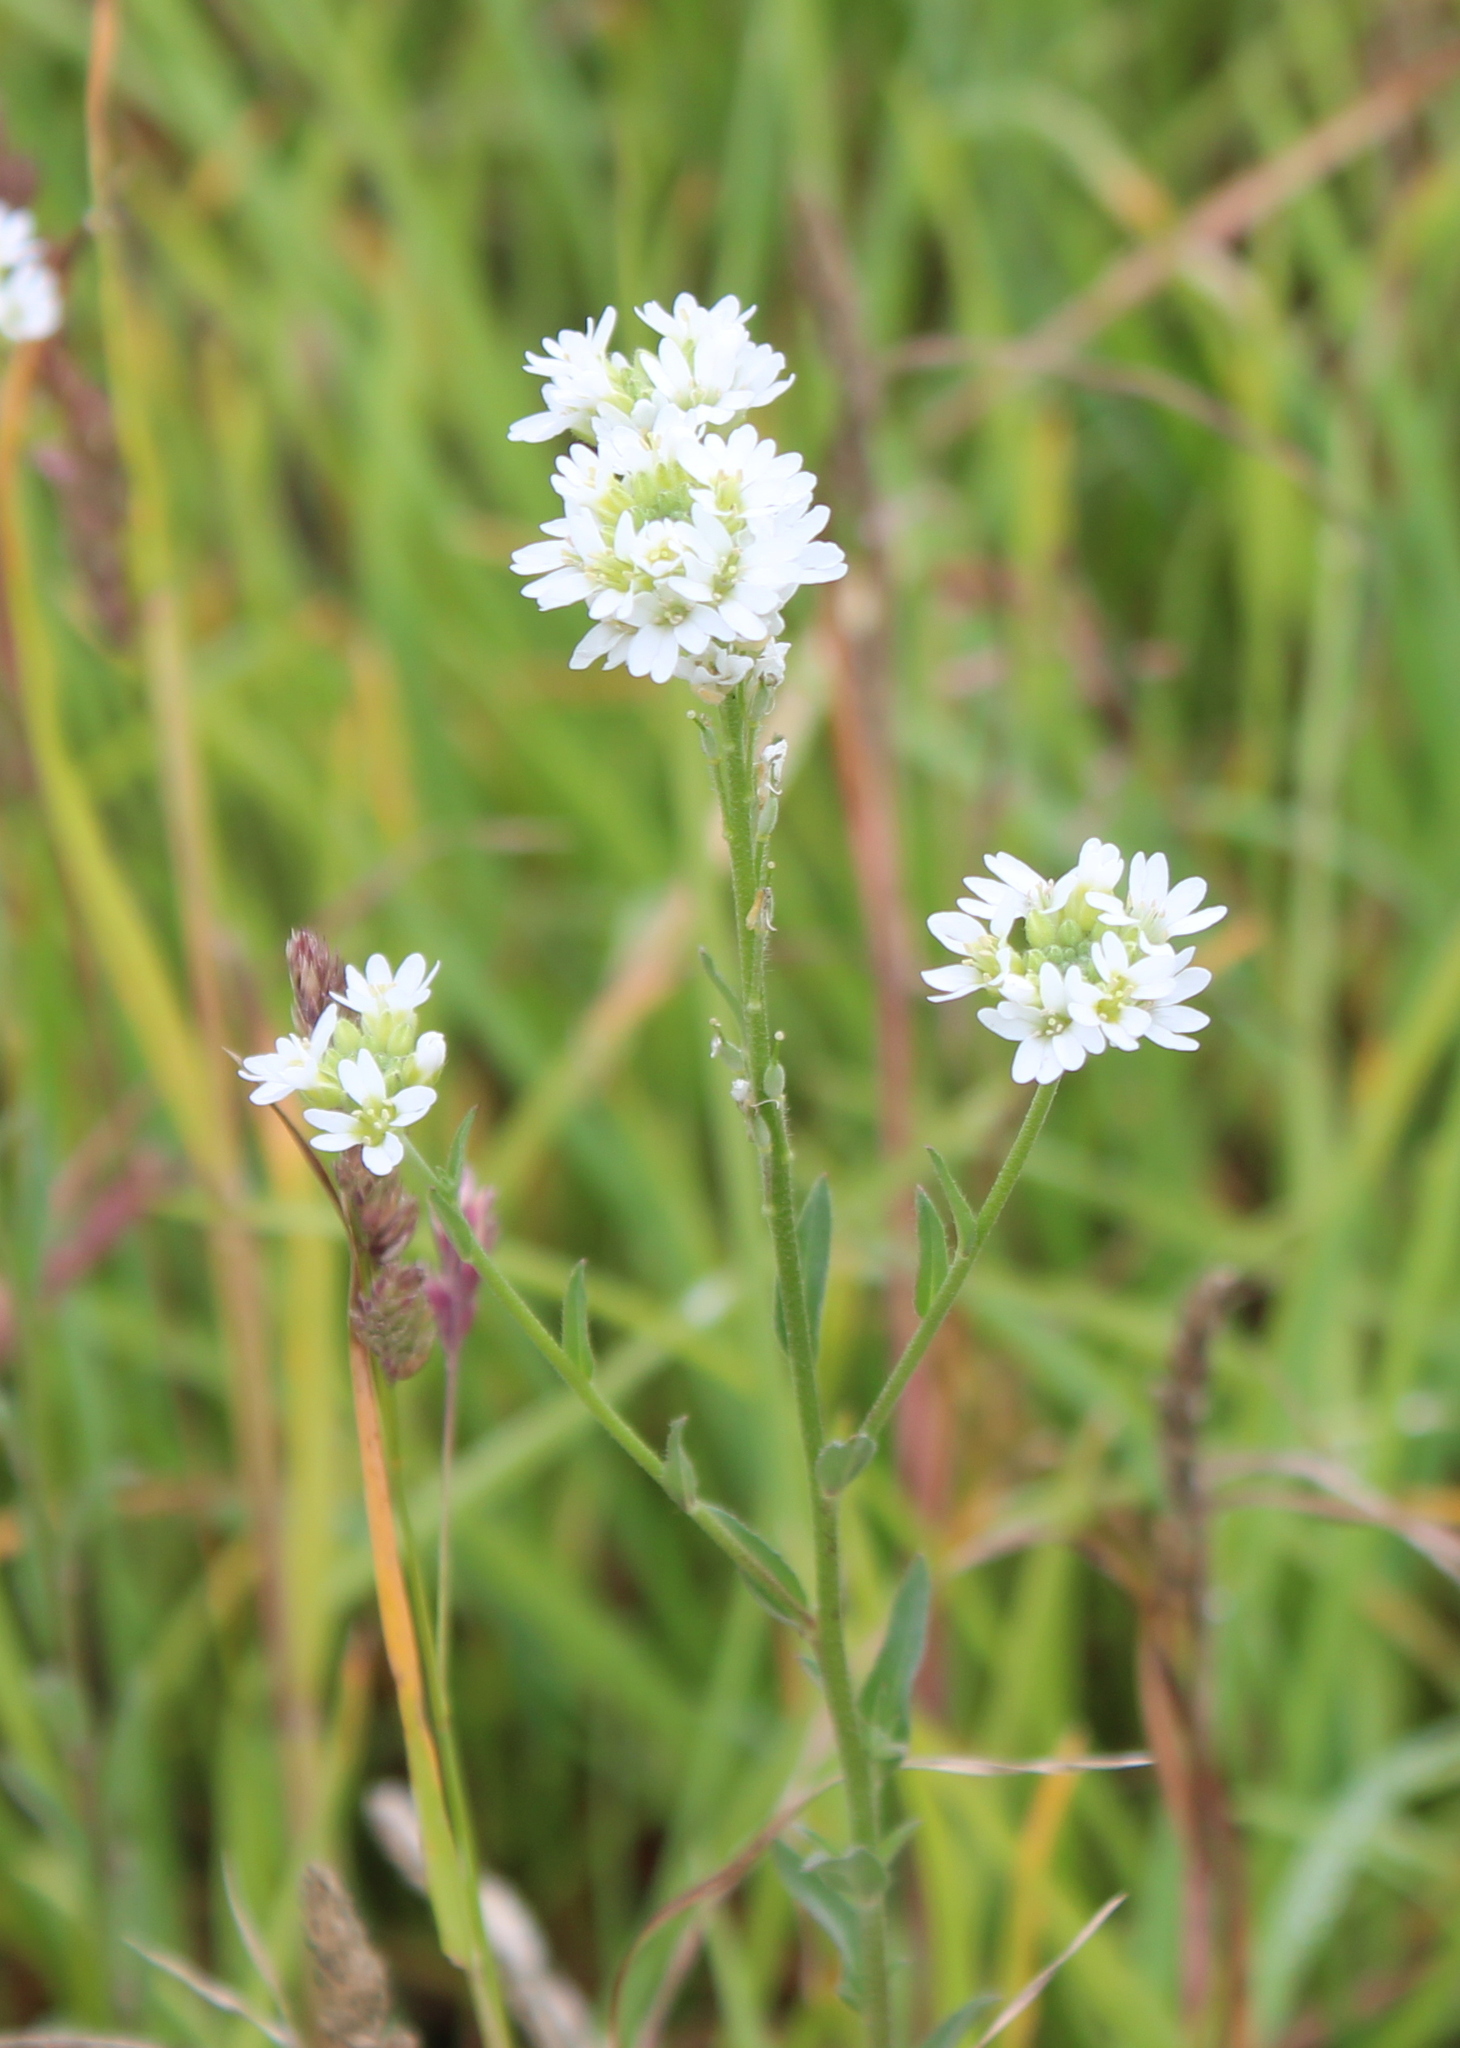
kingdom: Plantae
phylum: Tracheophyta
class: Magnoliopsida
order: Brassicales
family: Brassicaceae
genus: Berteroa
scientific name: Berteroa incana
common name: Hoary alison
